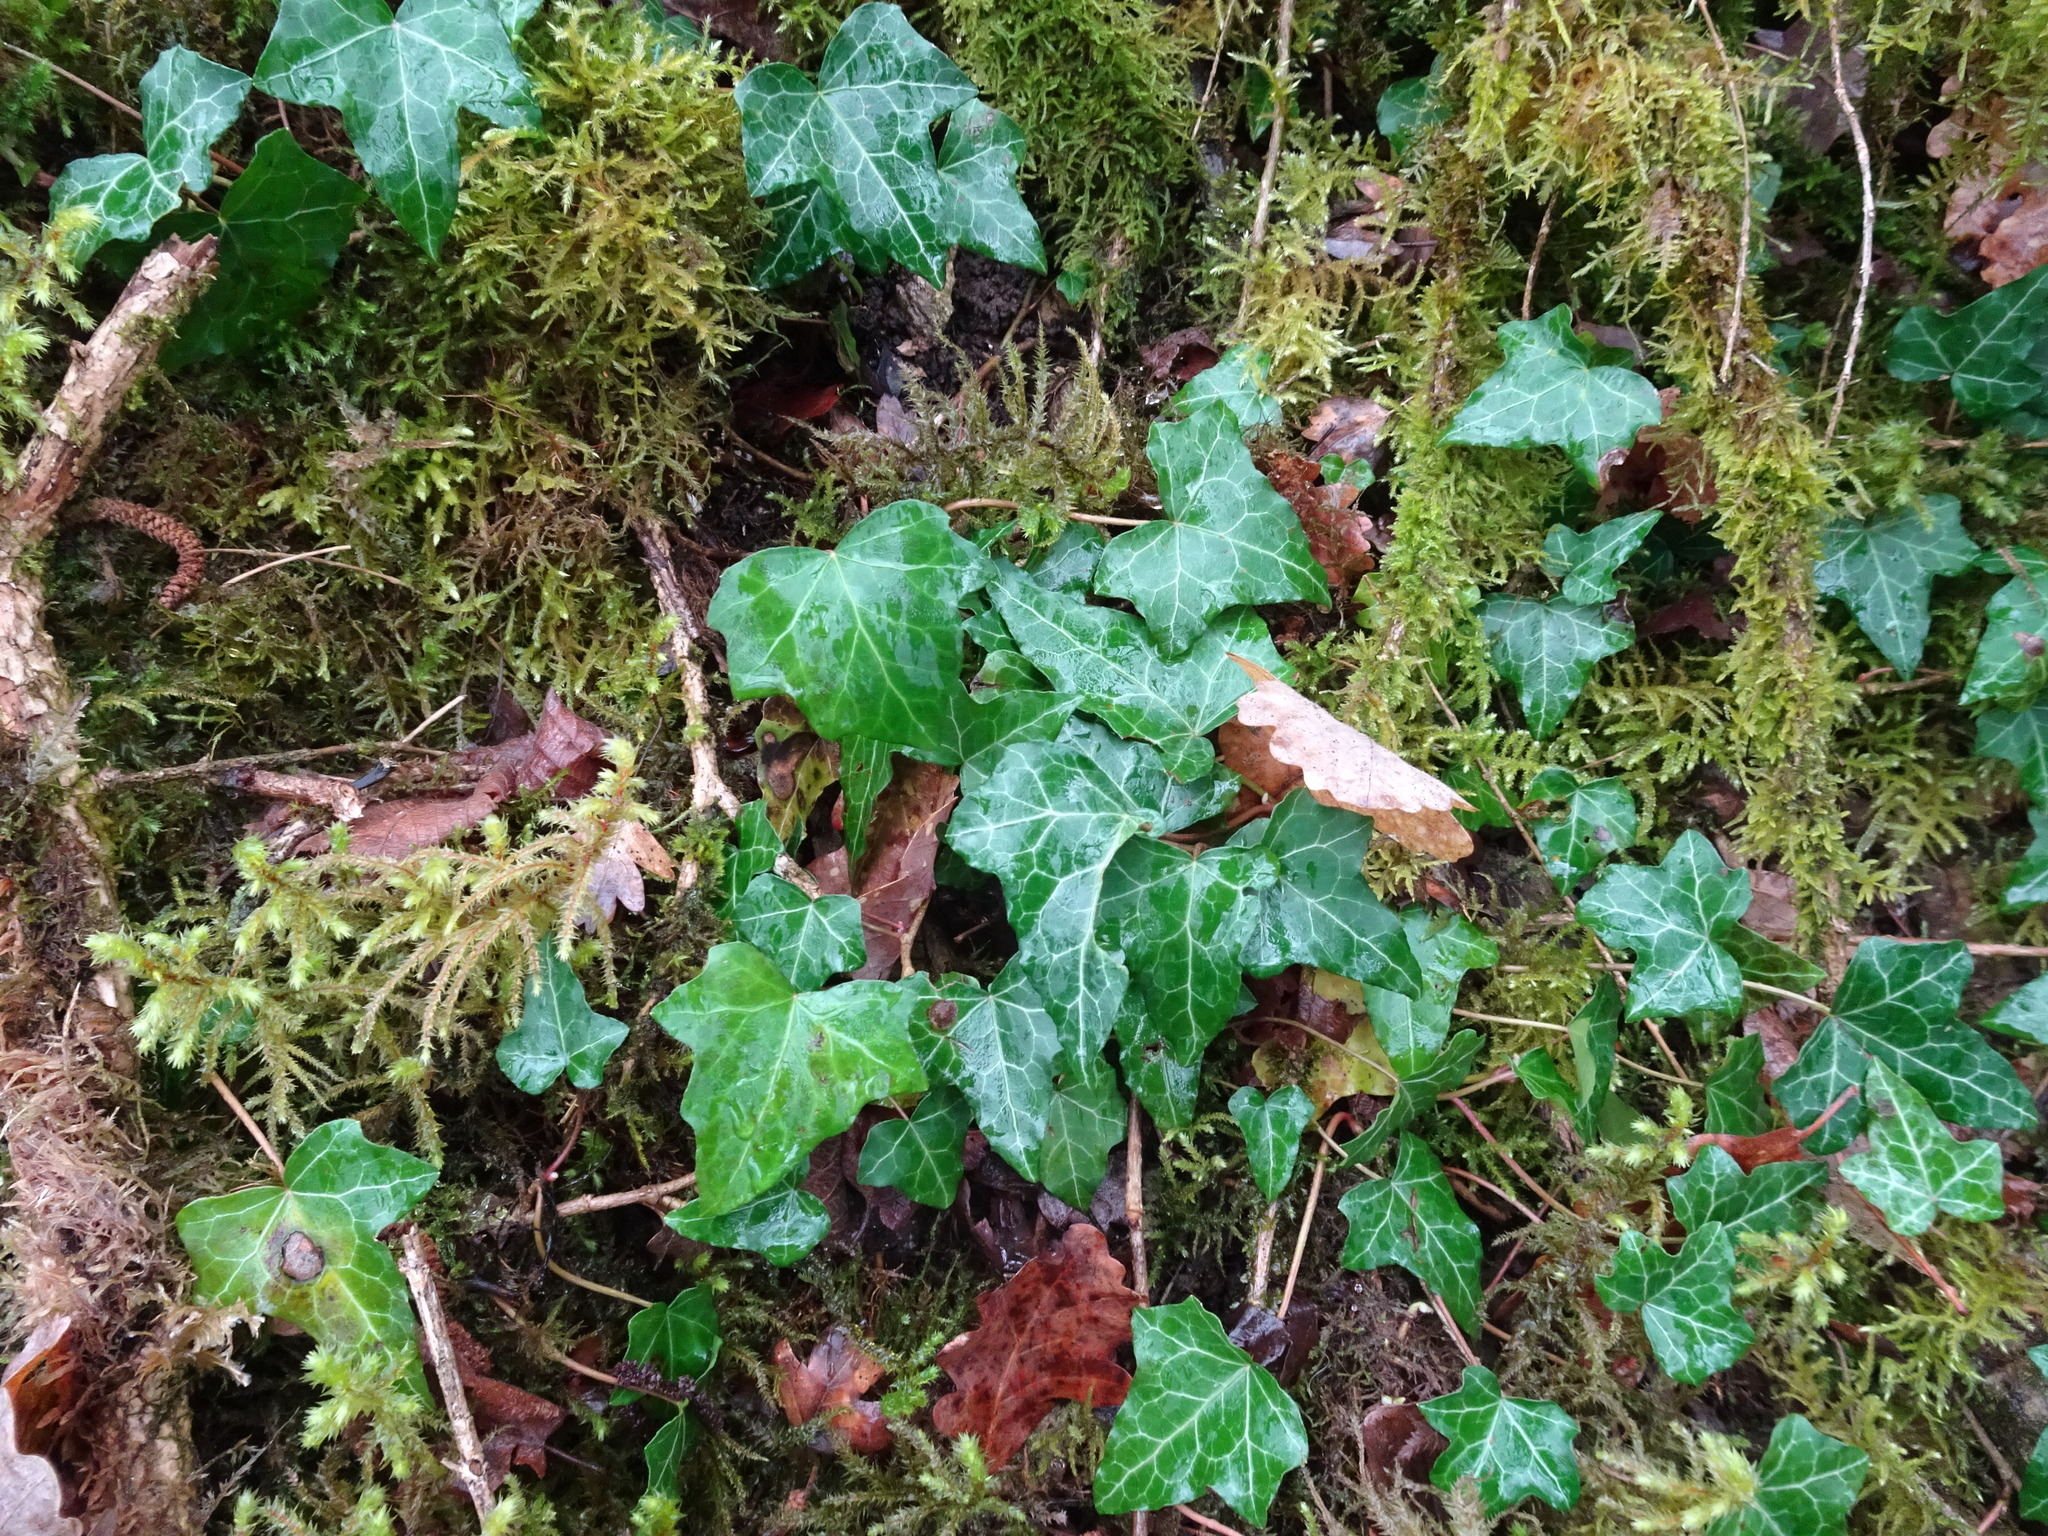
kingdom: Plantae
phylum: Tracheophyta
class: Magnoliopsida
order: Apiales
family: Araliaceae
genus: Hedera
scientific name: Hedera helix
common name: Ivy
